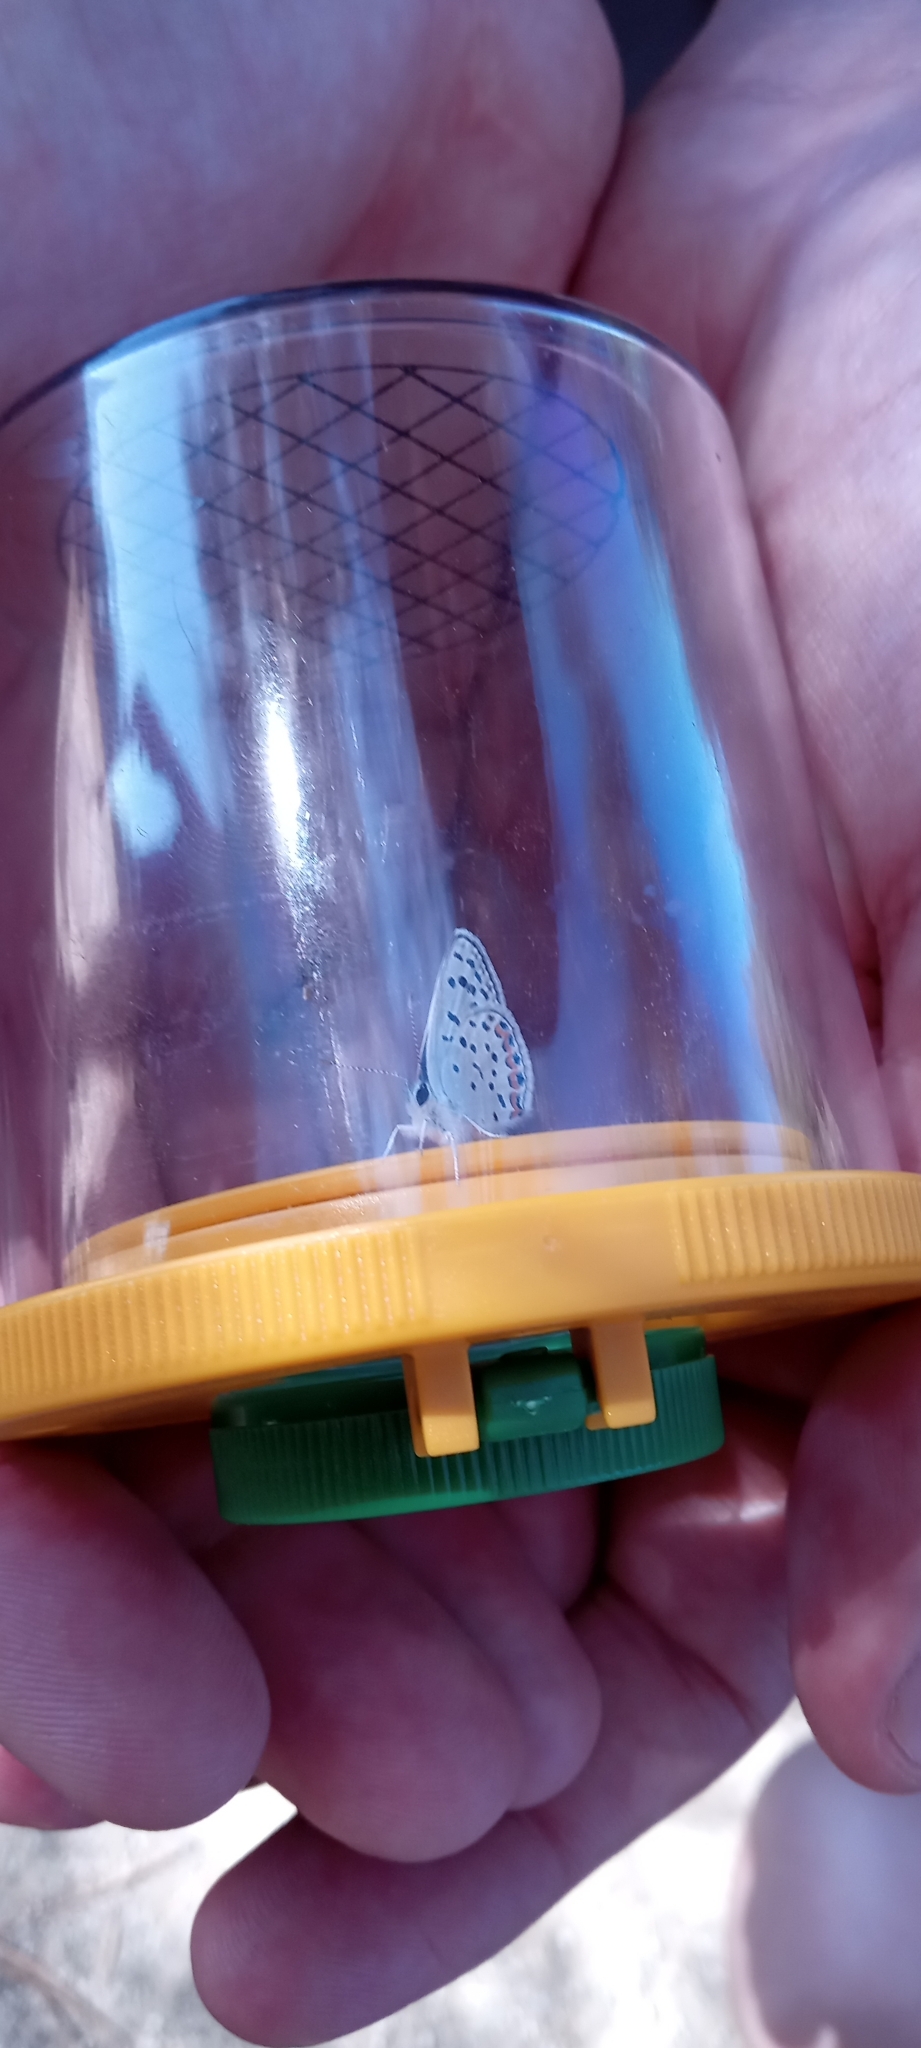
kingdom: Animalia
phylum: Arthropoda
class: Insecta
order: Lepidoptera
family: Lycaenidae
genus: Icaricia
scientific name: Icaricia acmon
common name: Acmon blue
